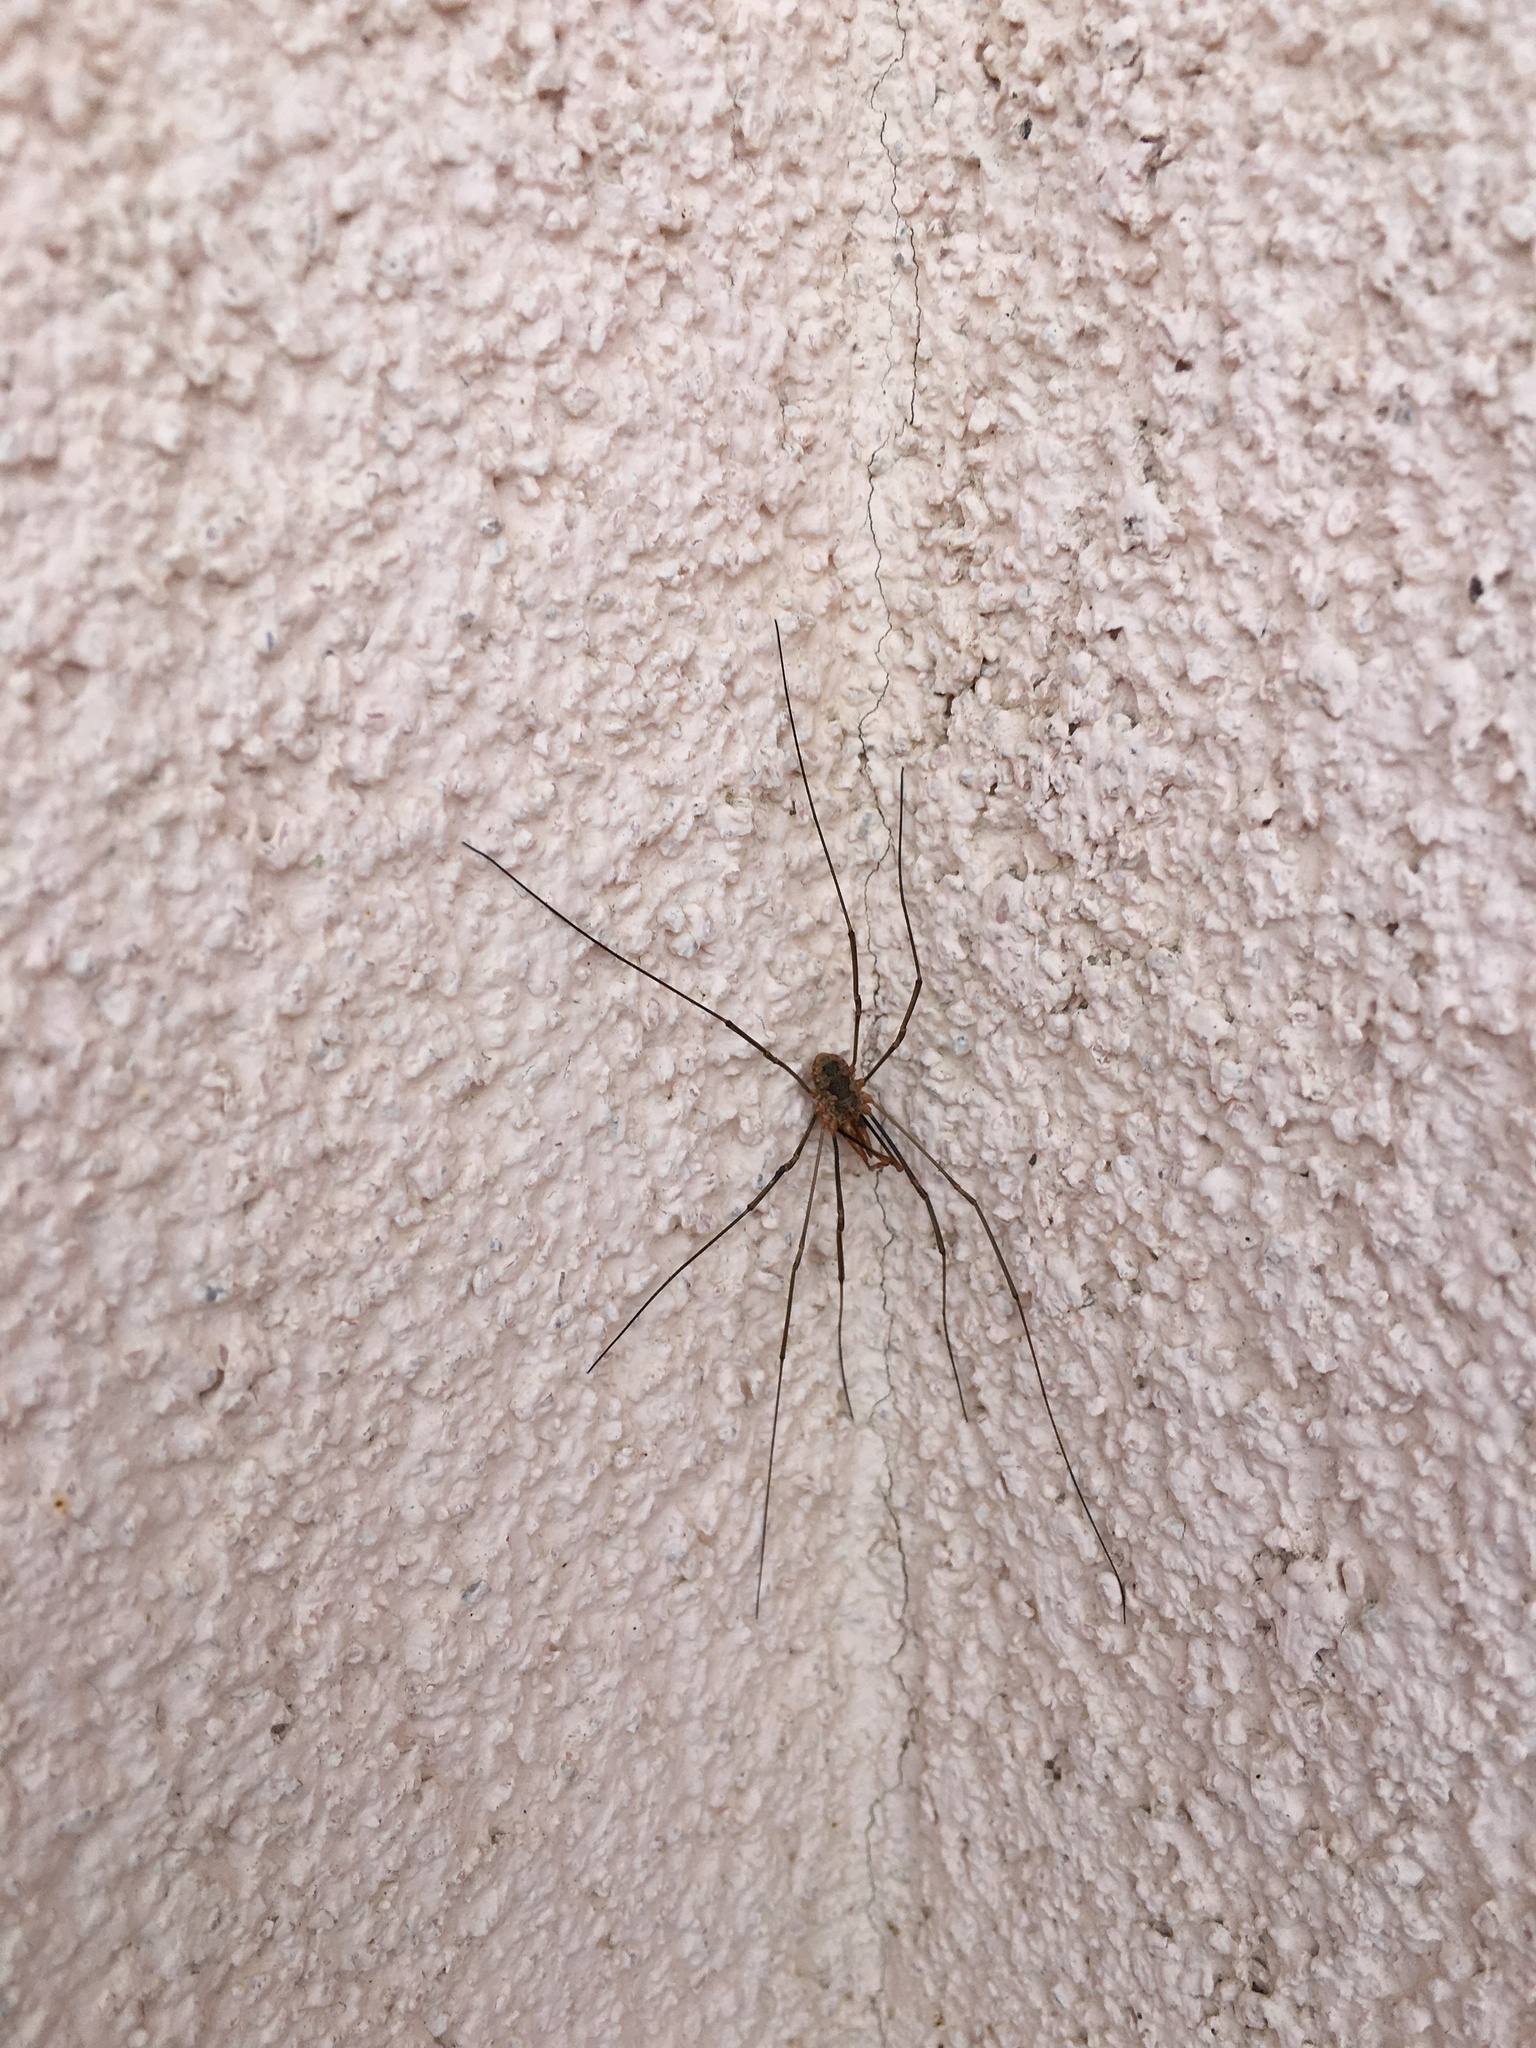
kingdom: Animalia
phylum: Arthropoda
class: Arachnida
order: Opiliones
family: Phalangiidae
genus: Phalangium
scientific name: Phalangium opilio
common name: Daddy longleg
